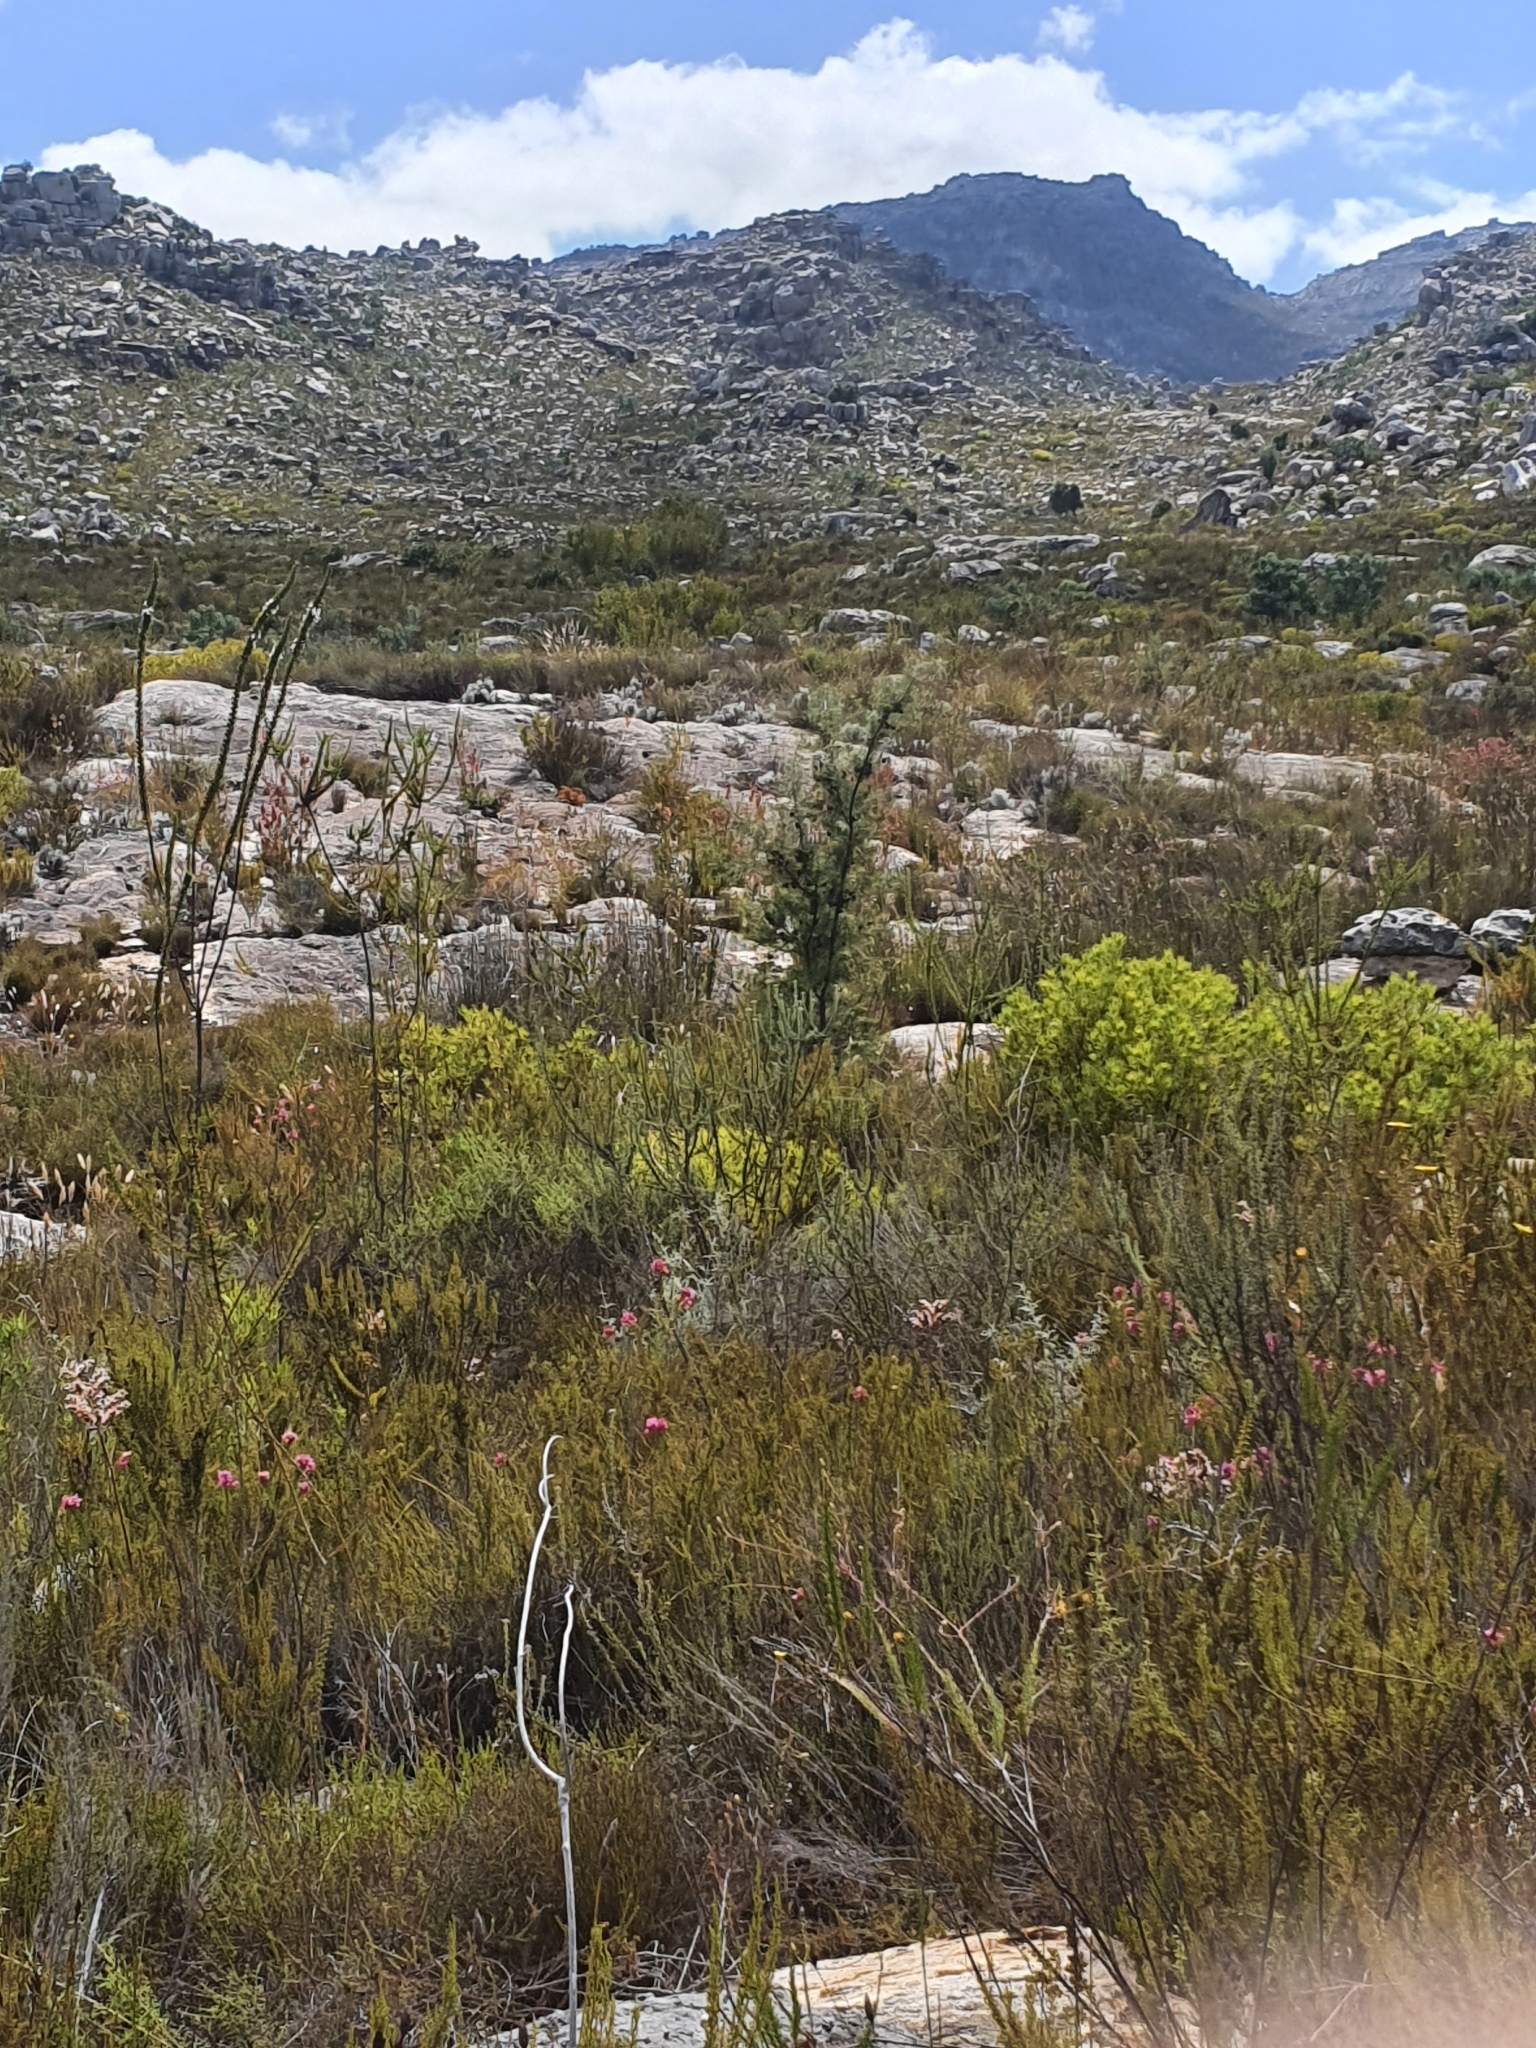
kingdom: Plantae
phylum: Tracheophyta
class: Magnoliopsida
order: Proteales
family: Proteaceae
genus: Hakea
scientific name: Hakea sericea
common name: Needle bush
